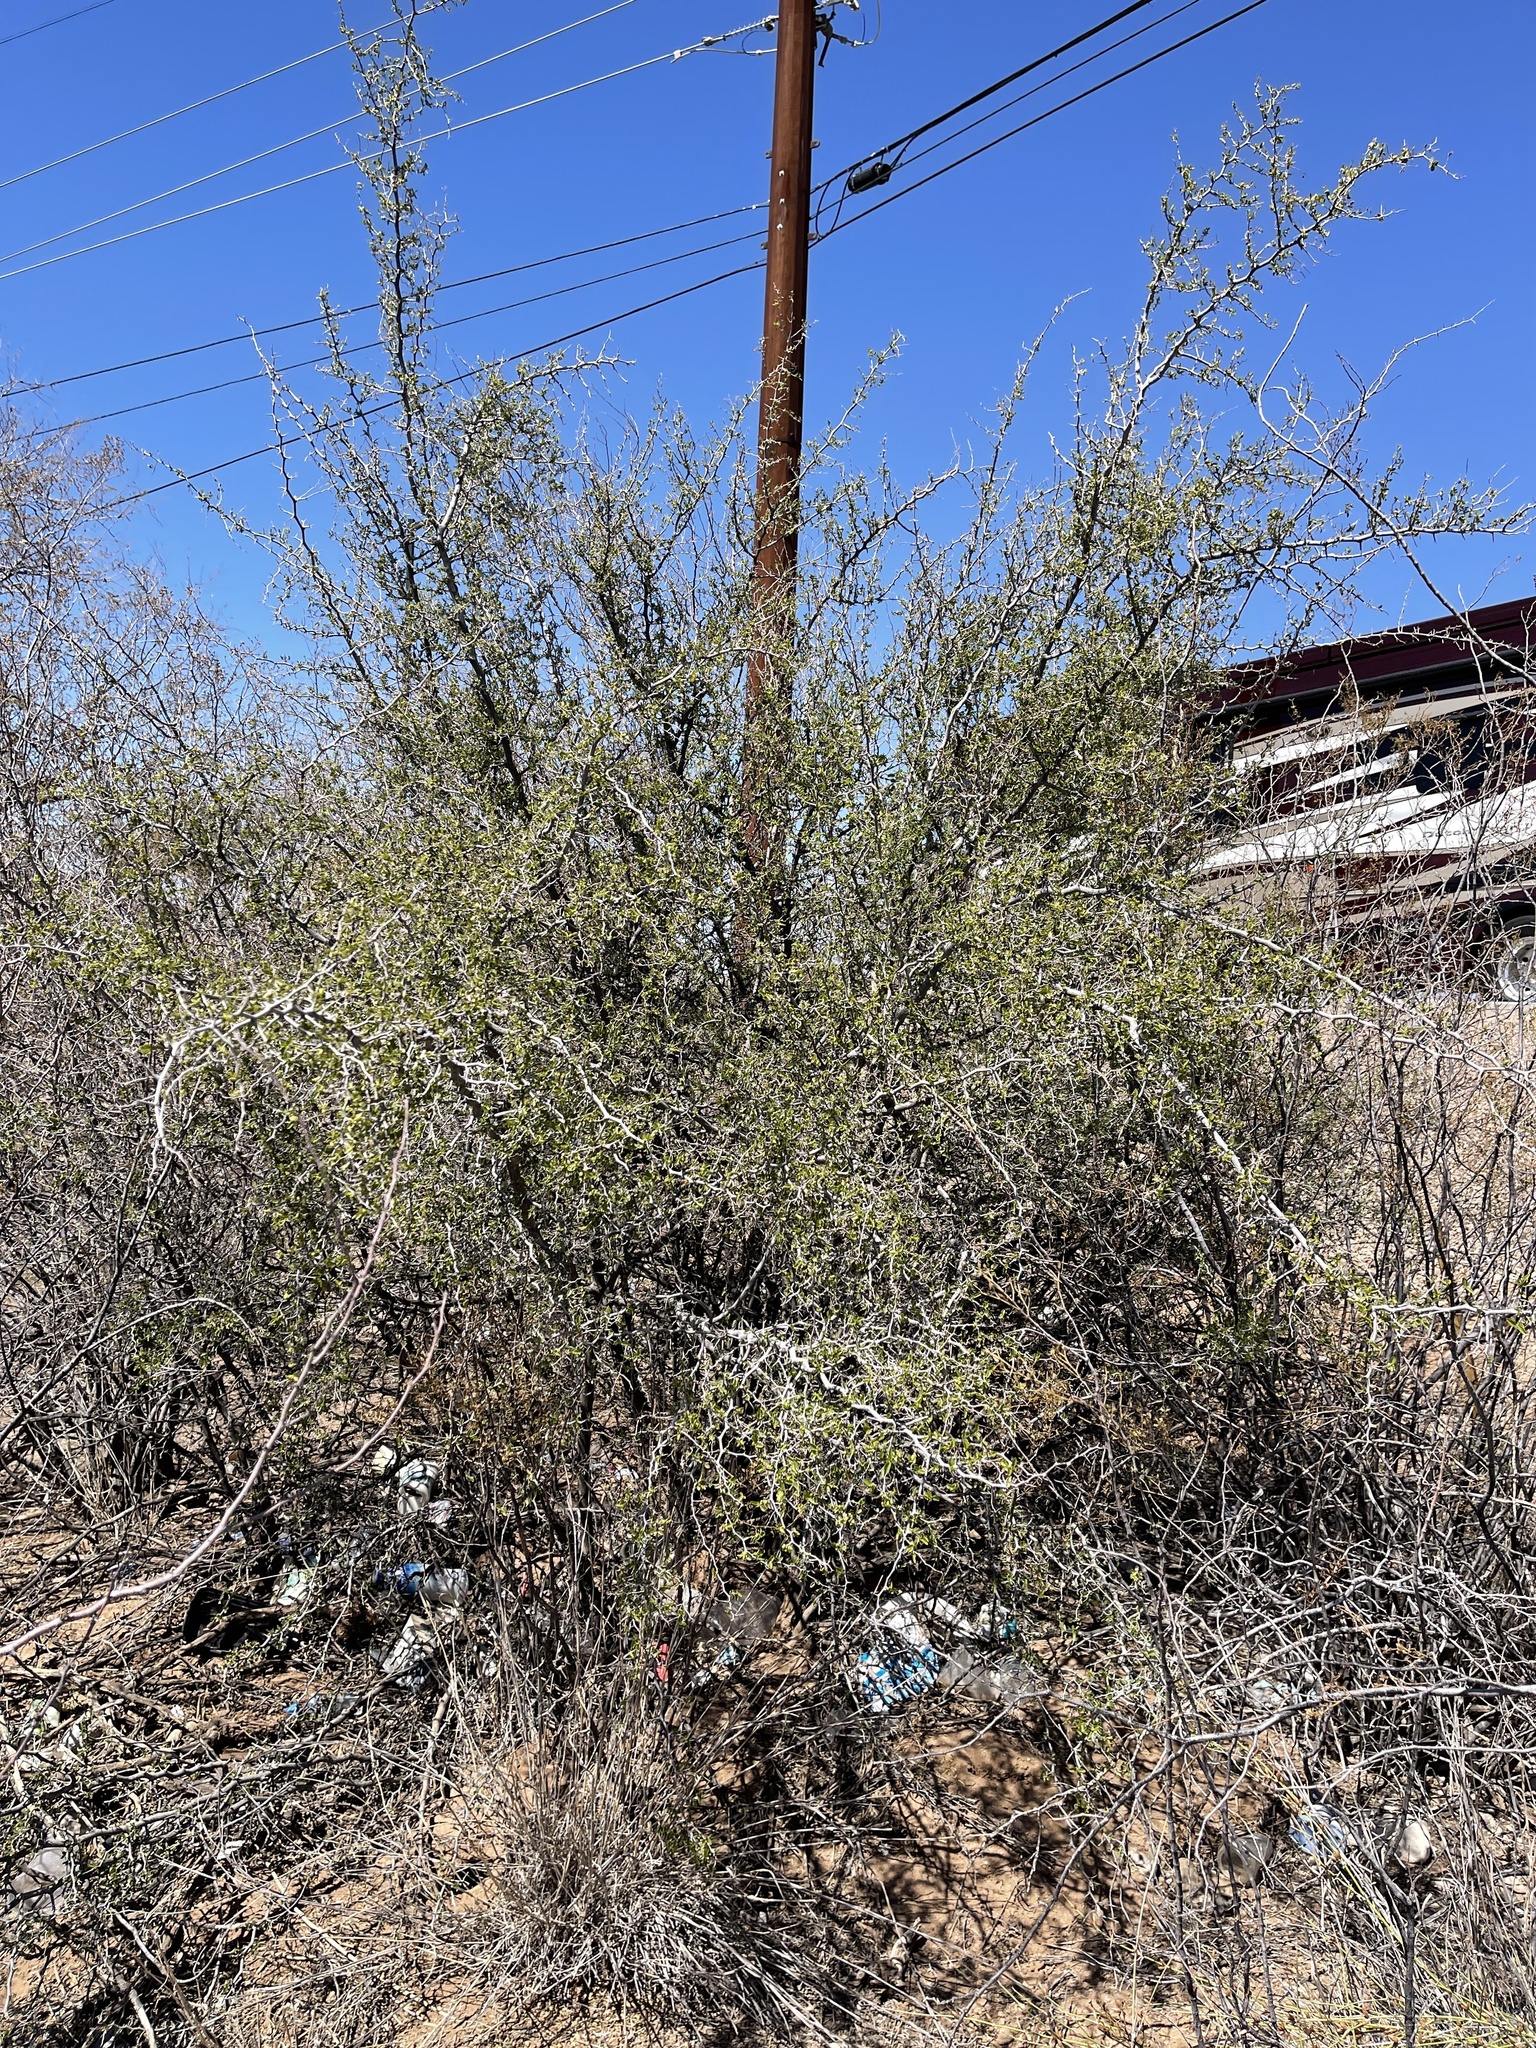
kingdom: Plantae
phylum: Tracheophyta
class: Magnoliopsida
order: Rosales
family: Cannabaceae
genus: Celtis
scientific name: Celtis pallida
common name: Desert hackberry
